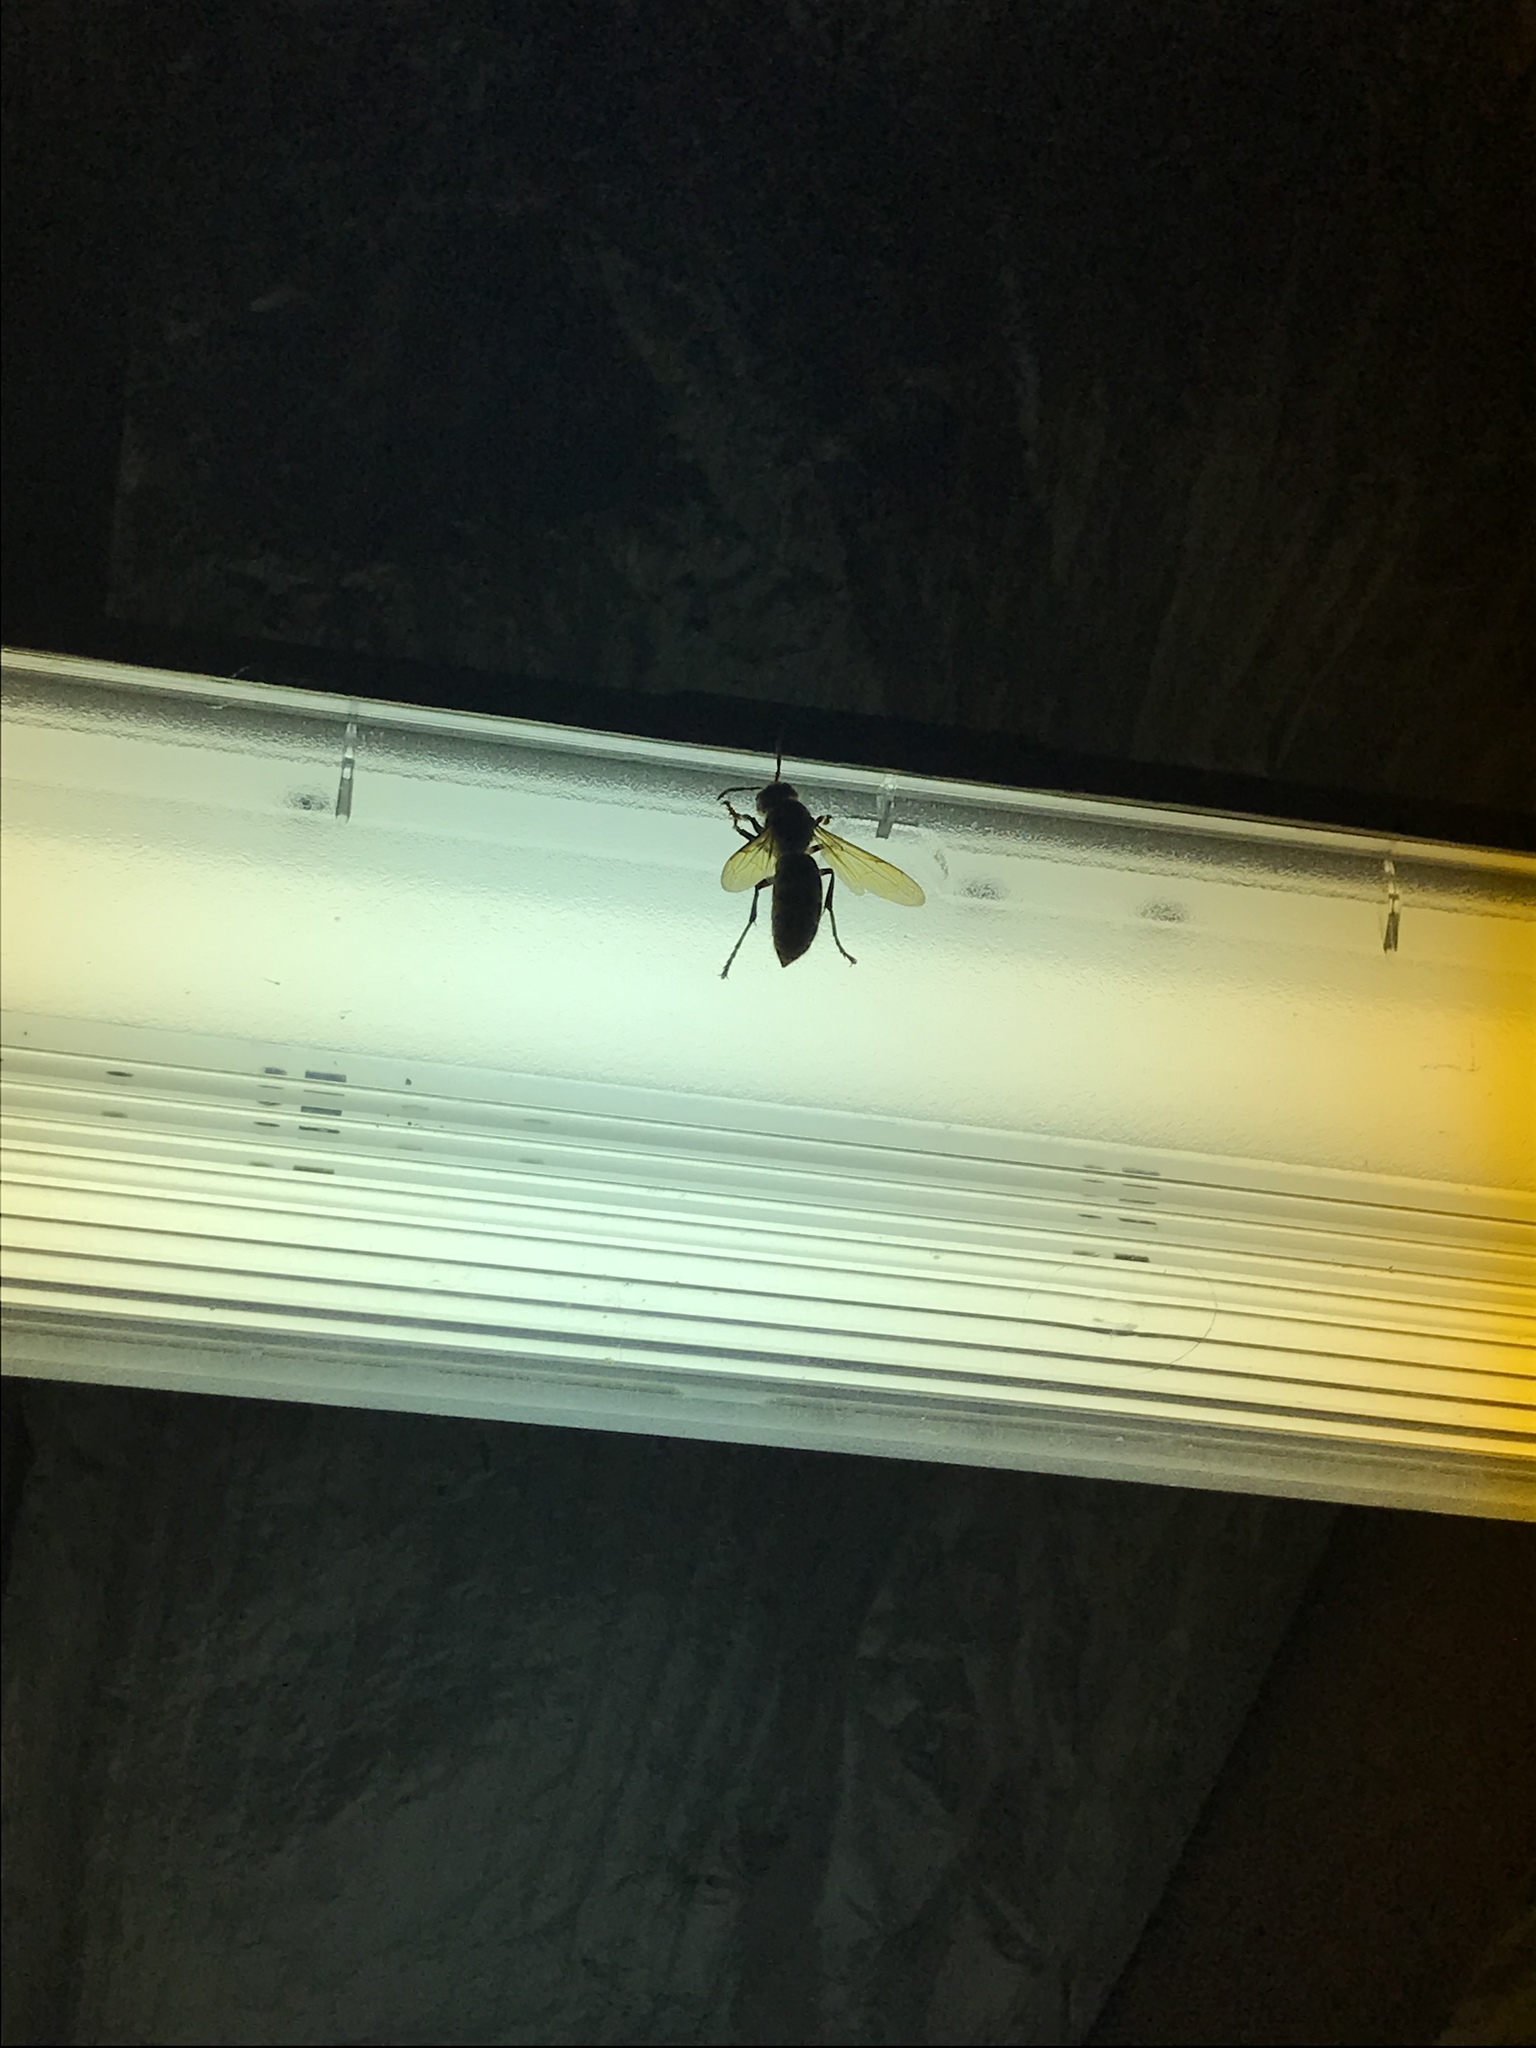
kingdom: Animalia
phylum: Arthropoda
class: Insecta
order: Hymenoptera
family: Vespidae
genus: Vespa
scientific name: Vespa crabro
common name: Hornet
